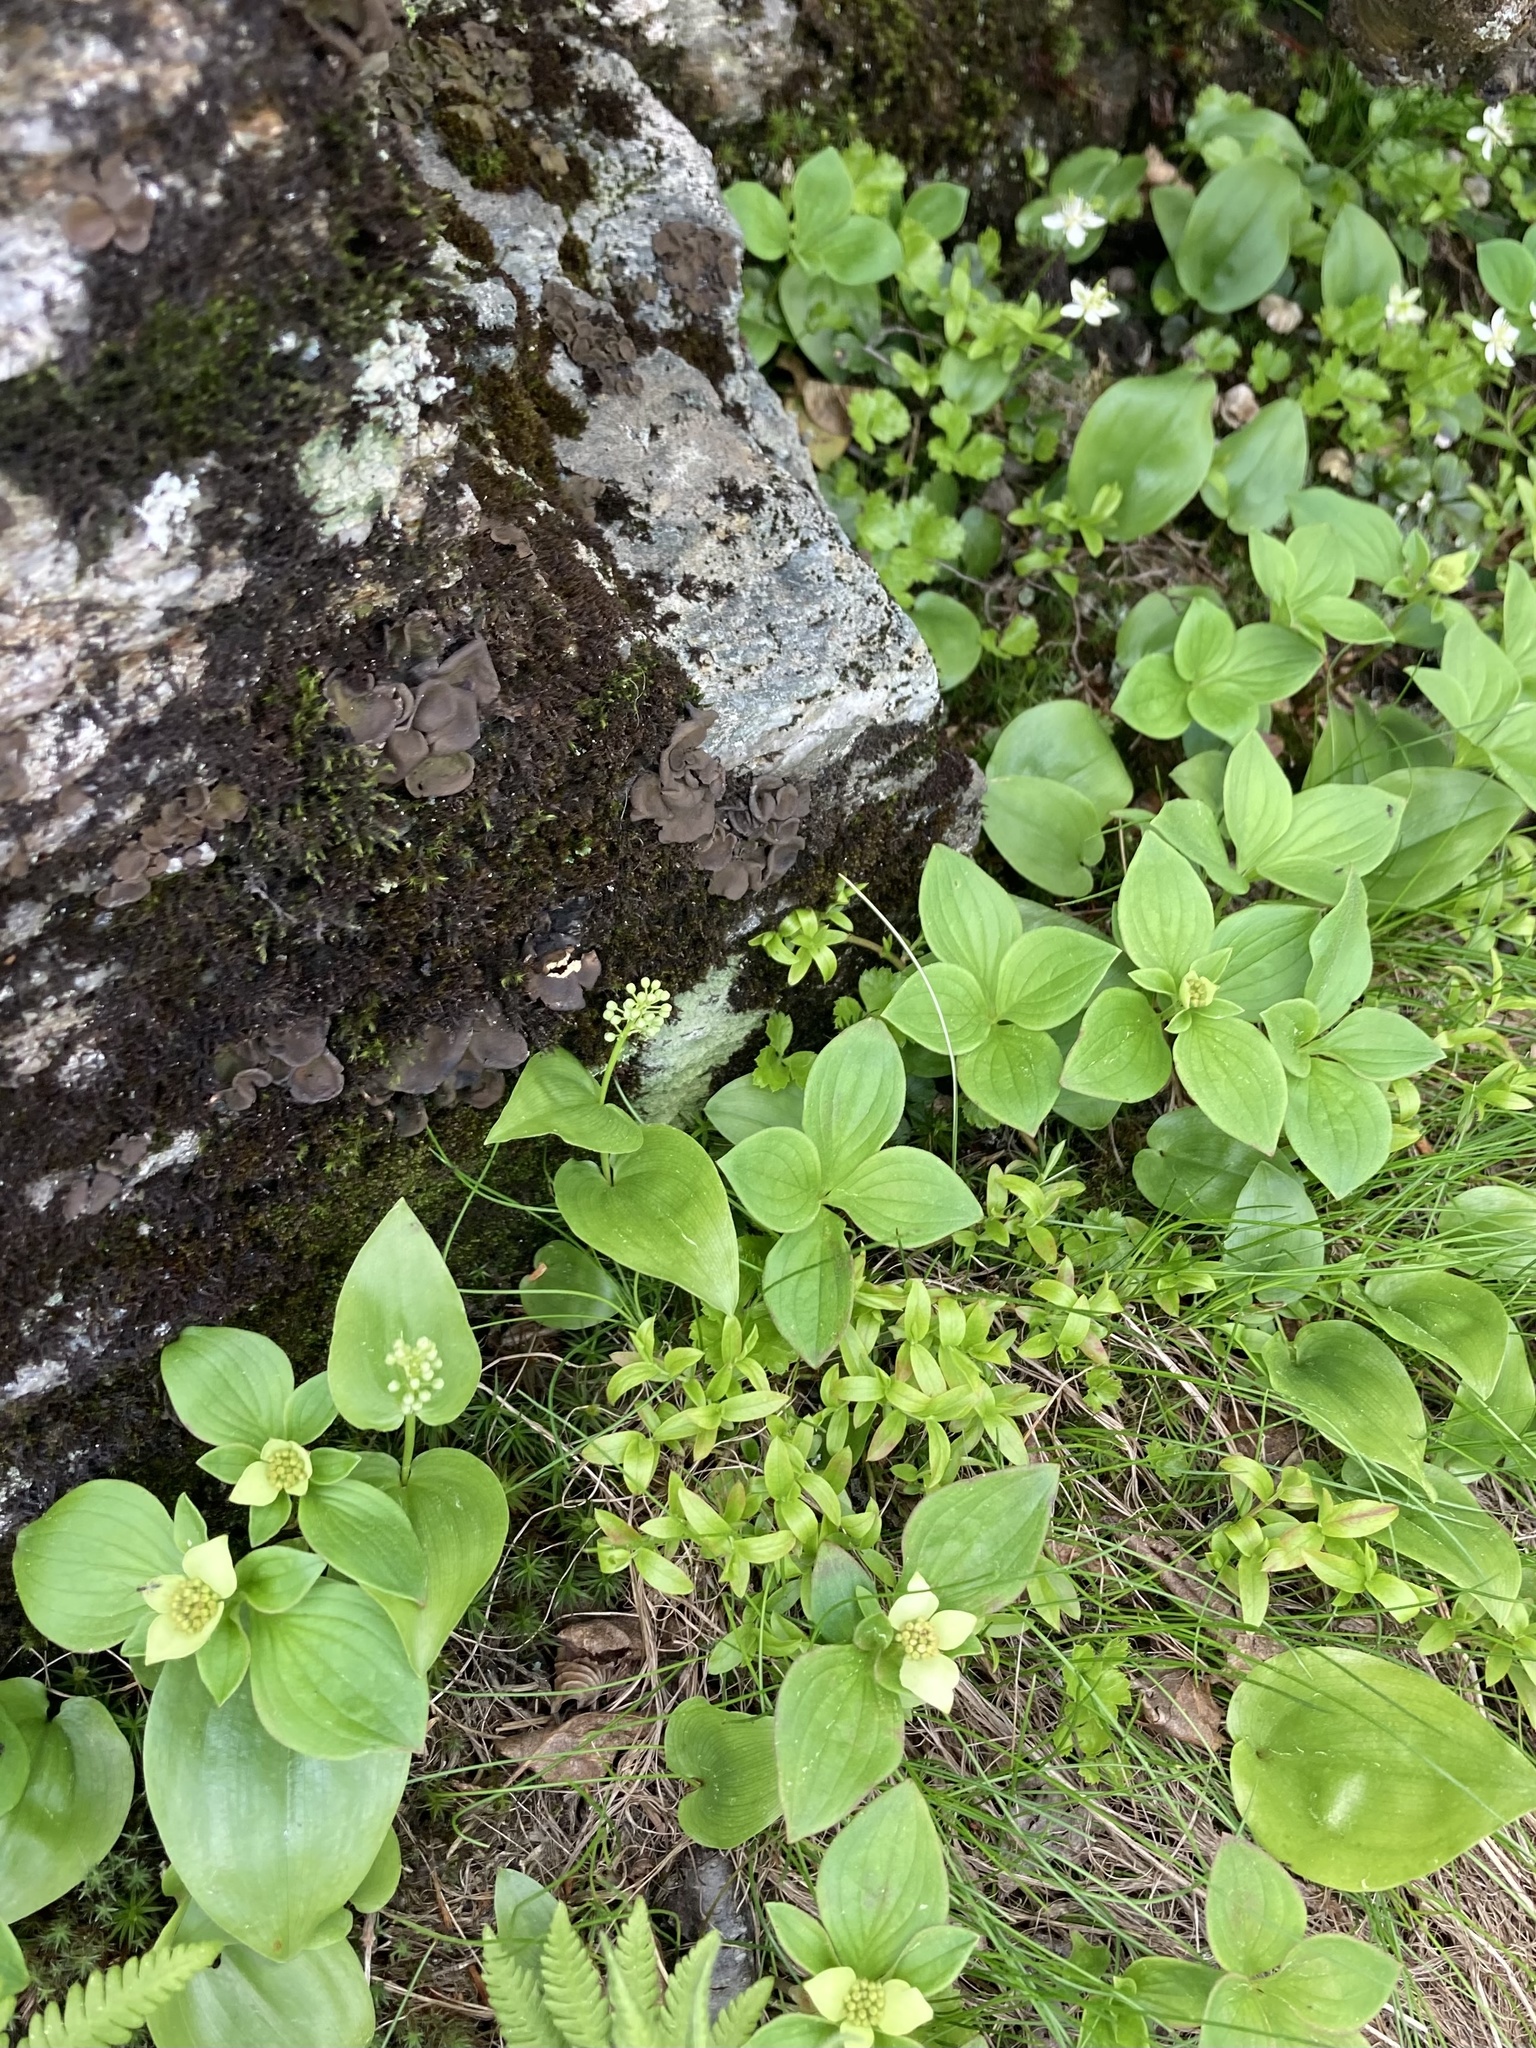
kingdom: Plantae
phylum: Tracheophyta
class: Magnoliopsida
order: Cornales
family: Cornaceae
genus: Cornus
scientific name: Cornus canadensis
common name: Creeping dogwood
